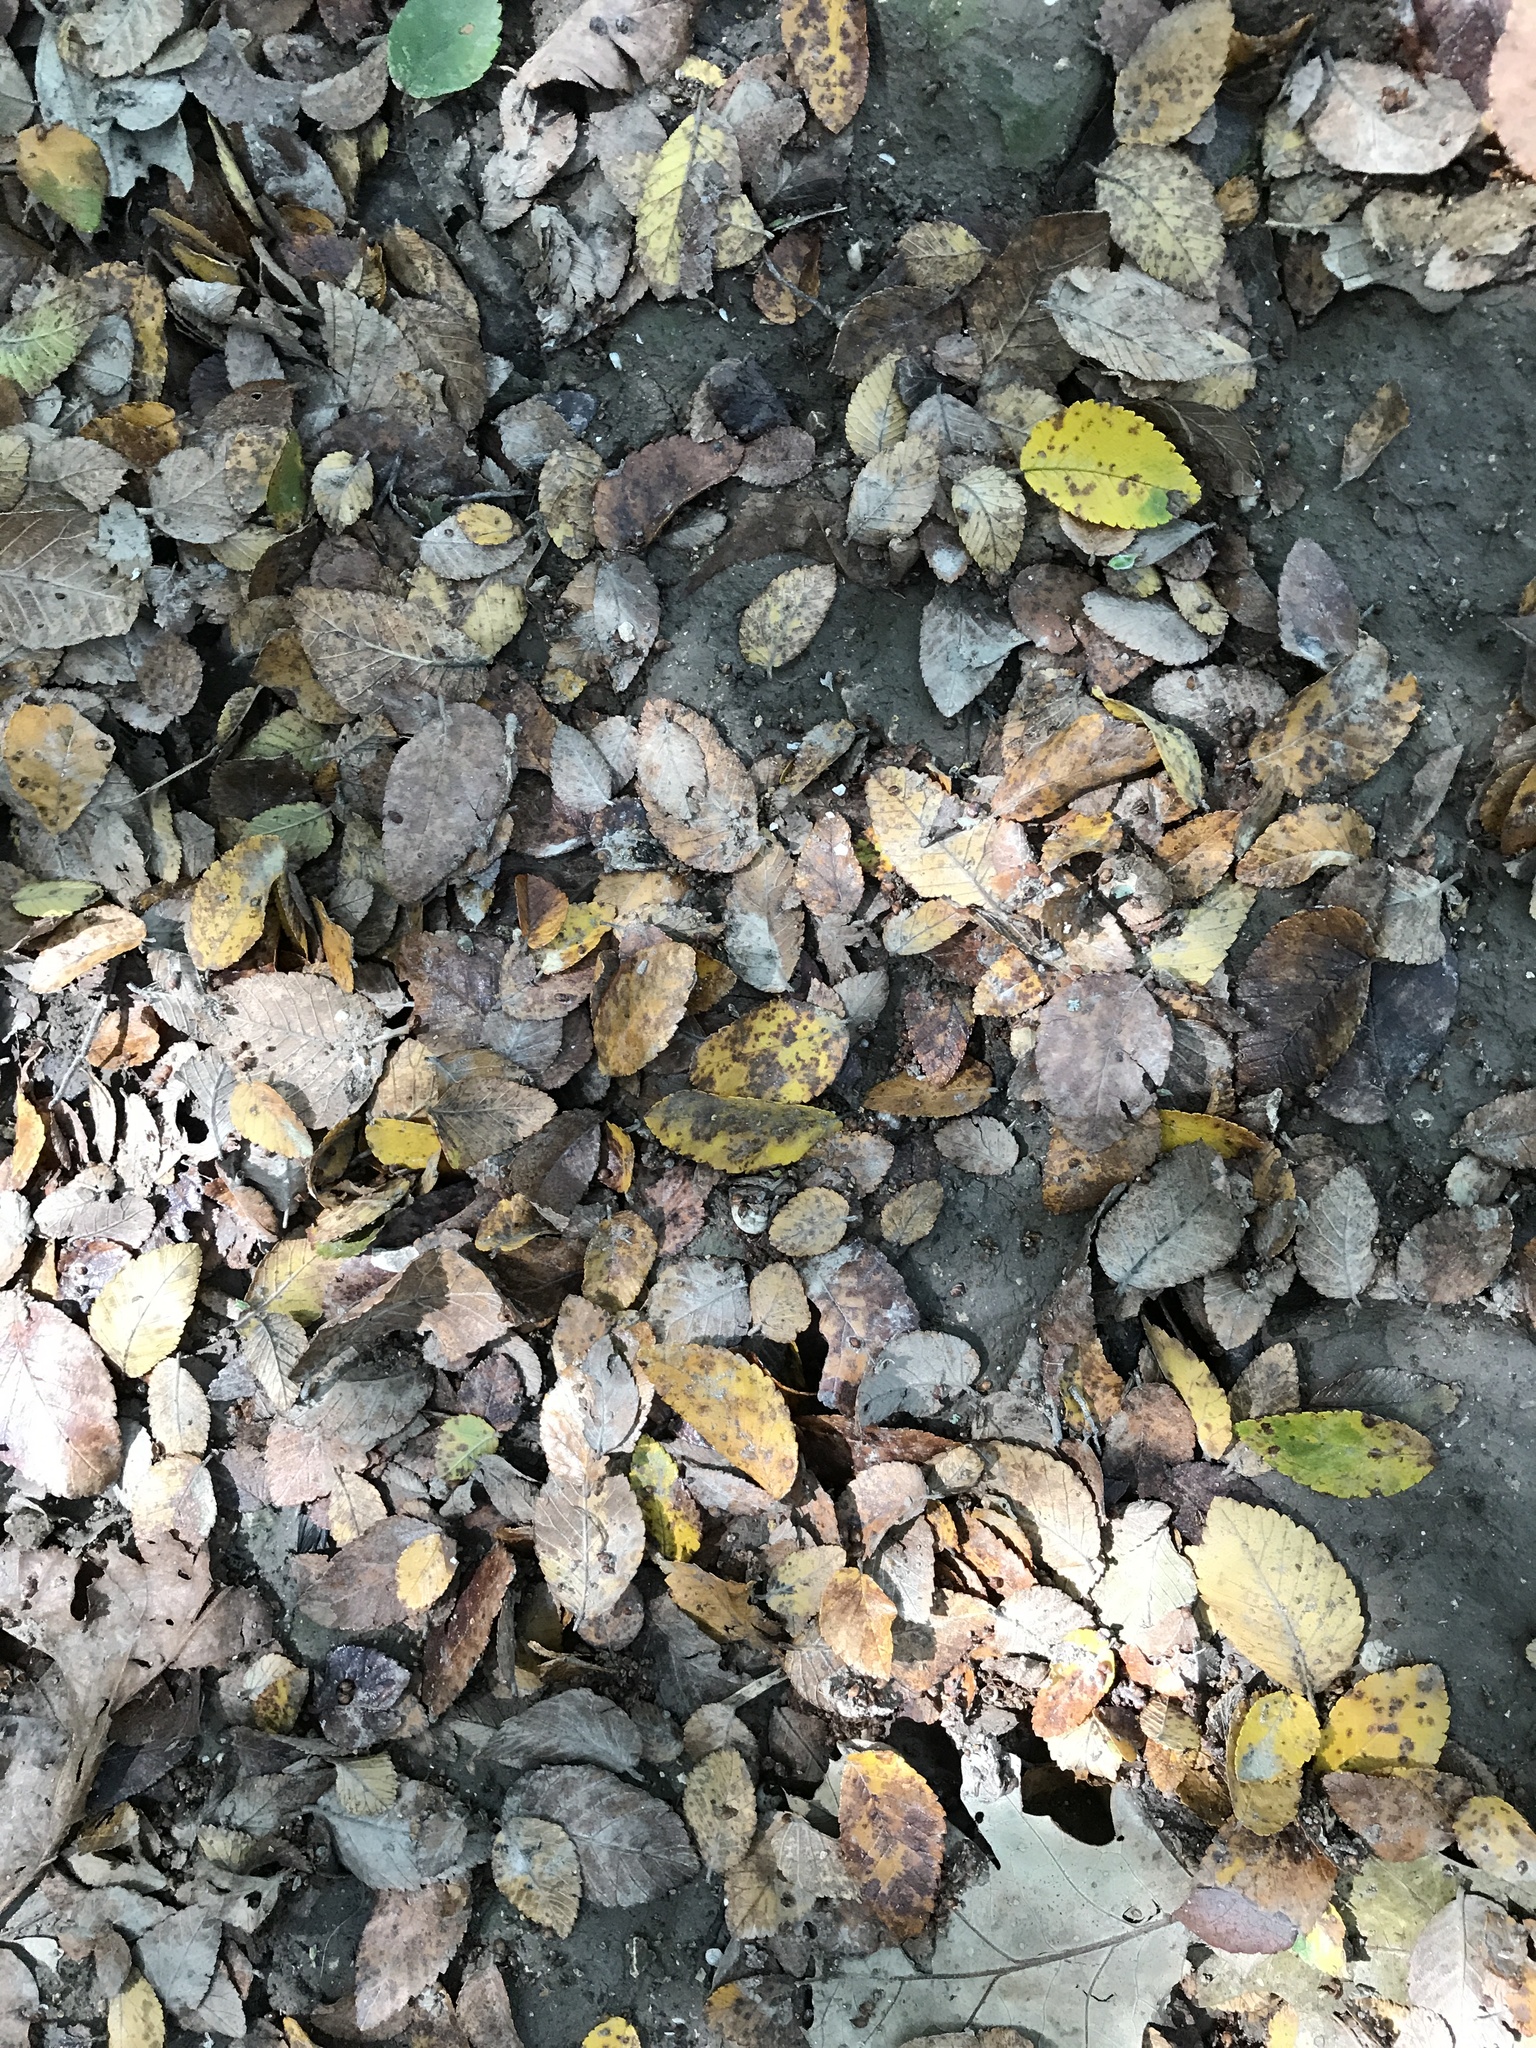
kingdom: Plantae
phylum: Tracheophyta
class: Magnoliopsida
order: Rosales
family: Ulmaceae
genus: Ulmus
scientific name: Ulmus crassifolia
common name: Basket elm
